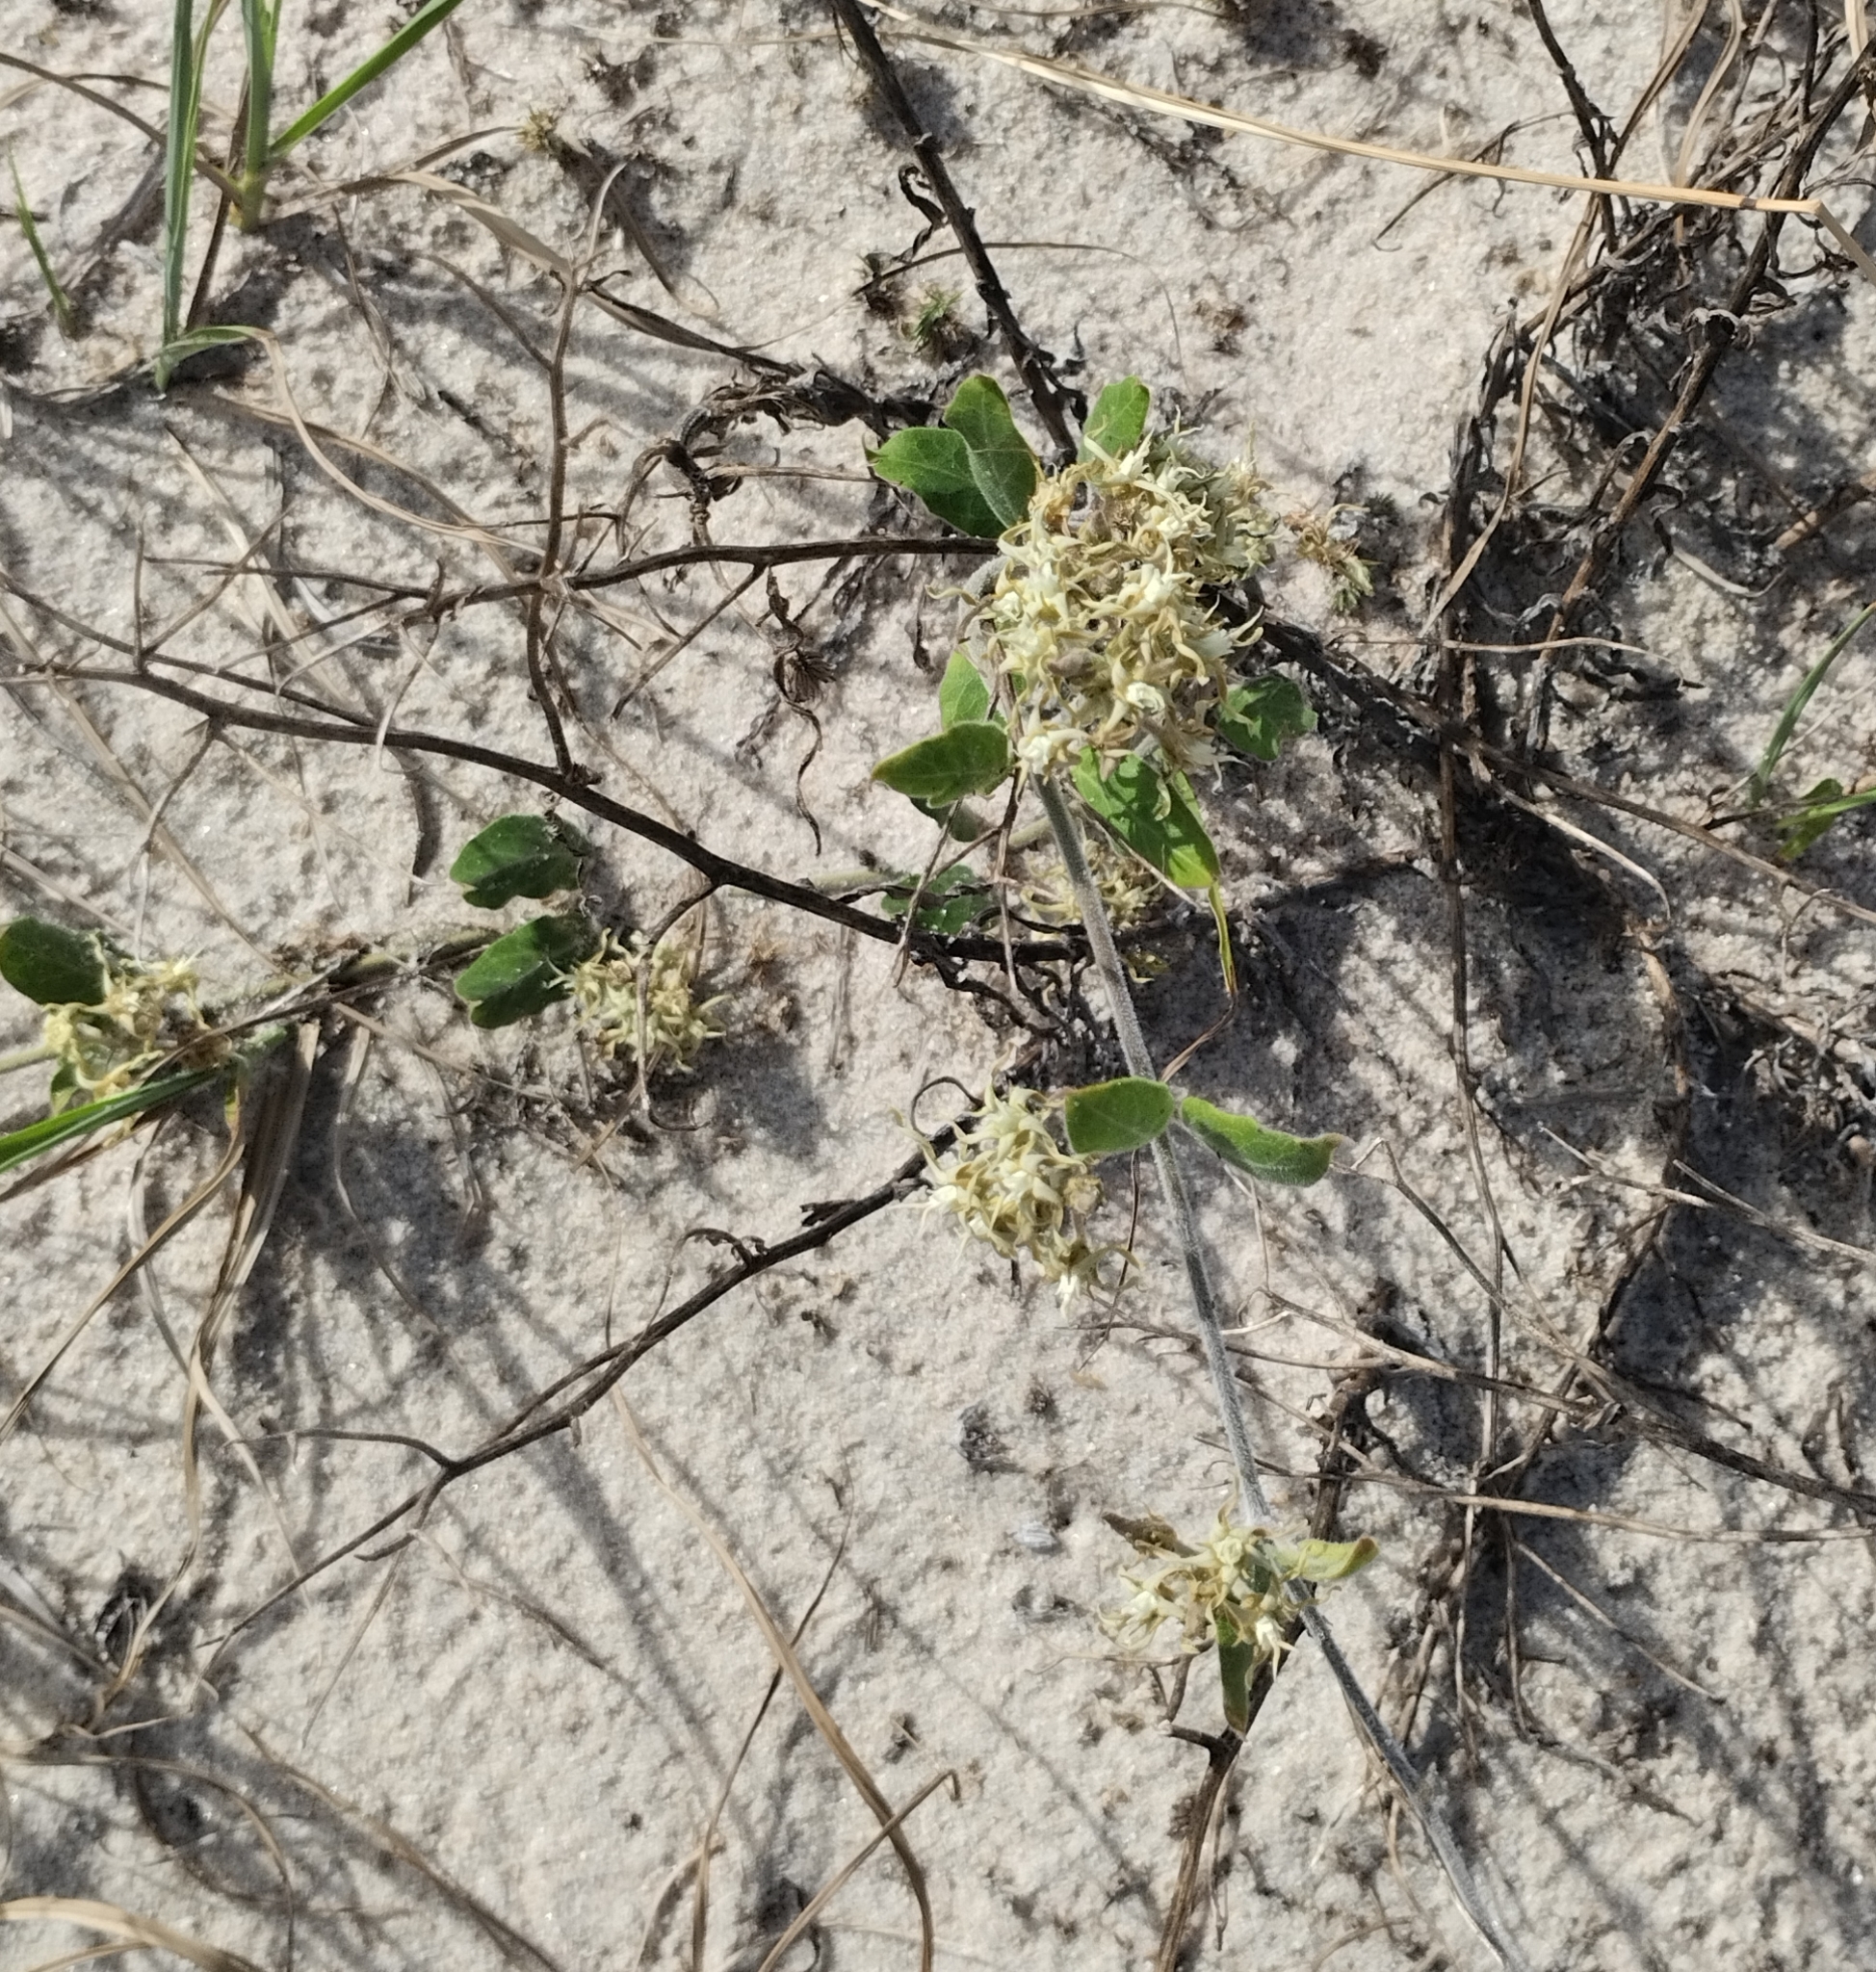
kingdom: Plantae
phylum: Tracheophyta
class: Magnoliopsida
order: Gentianales
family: Apocynaceae
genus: Oxypetalum
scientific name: Oxypetalum tomentosum
